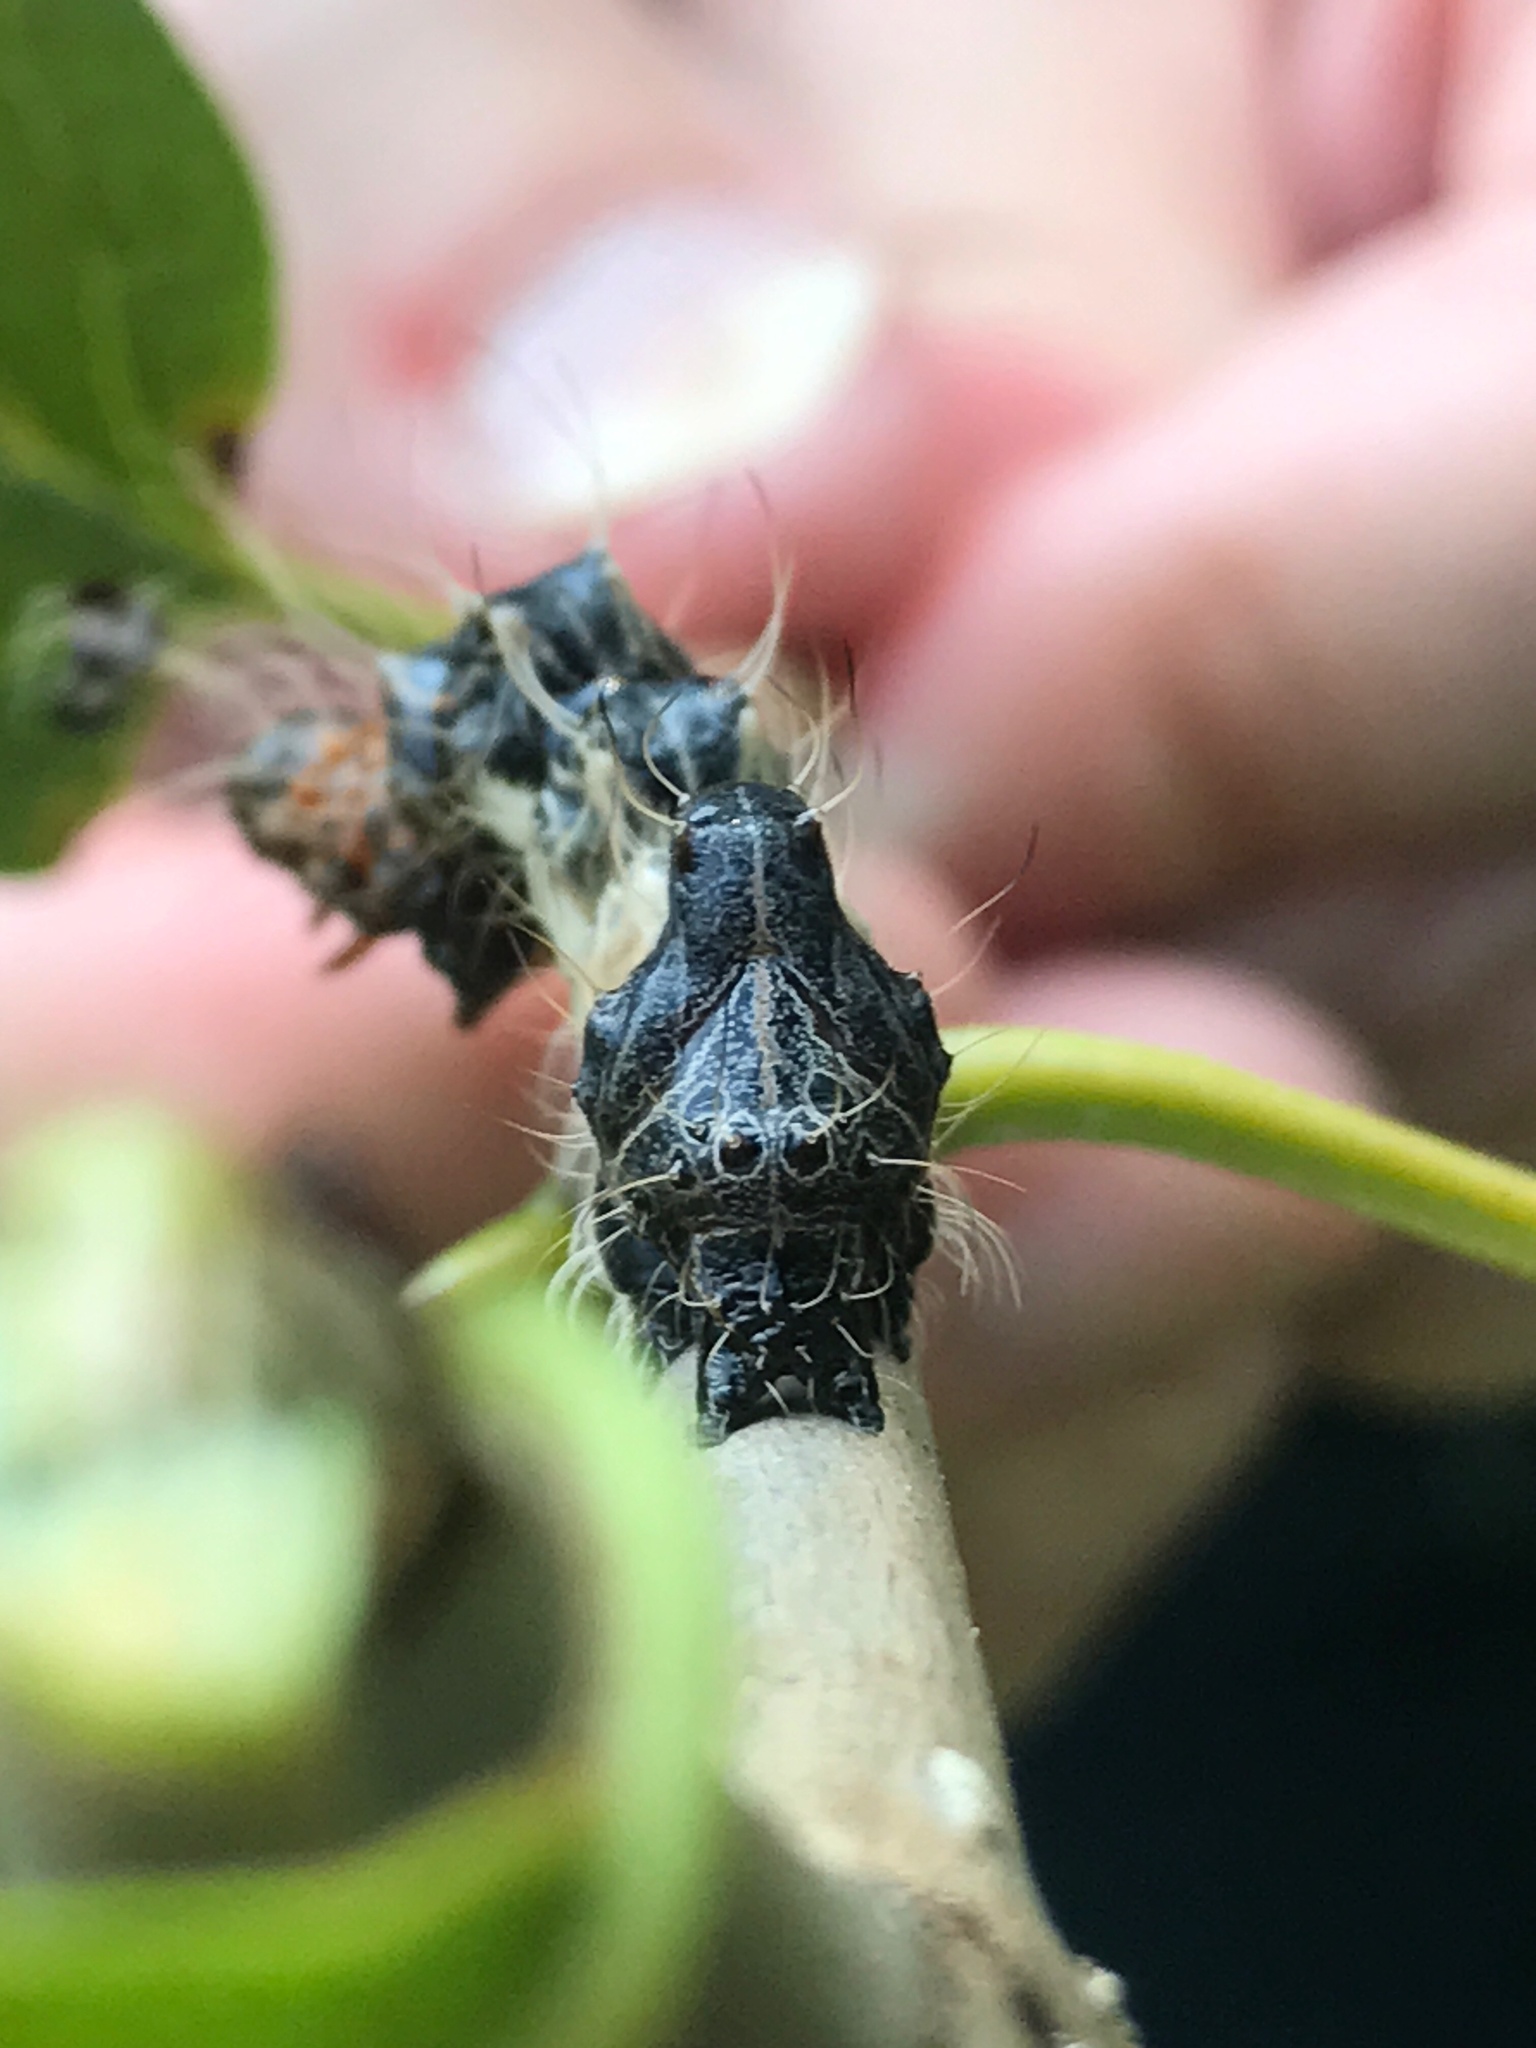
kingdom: Animalia
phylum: Arthropoda
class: Insecta
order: Lepidoptera
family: Noctuidae
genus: Harrisimemna
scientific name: Harrisimemna trisignata
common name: Harris threespot
